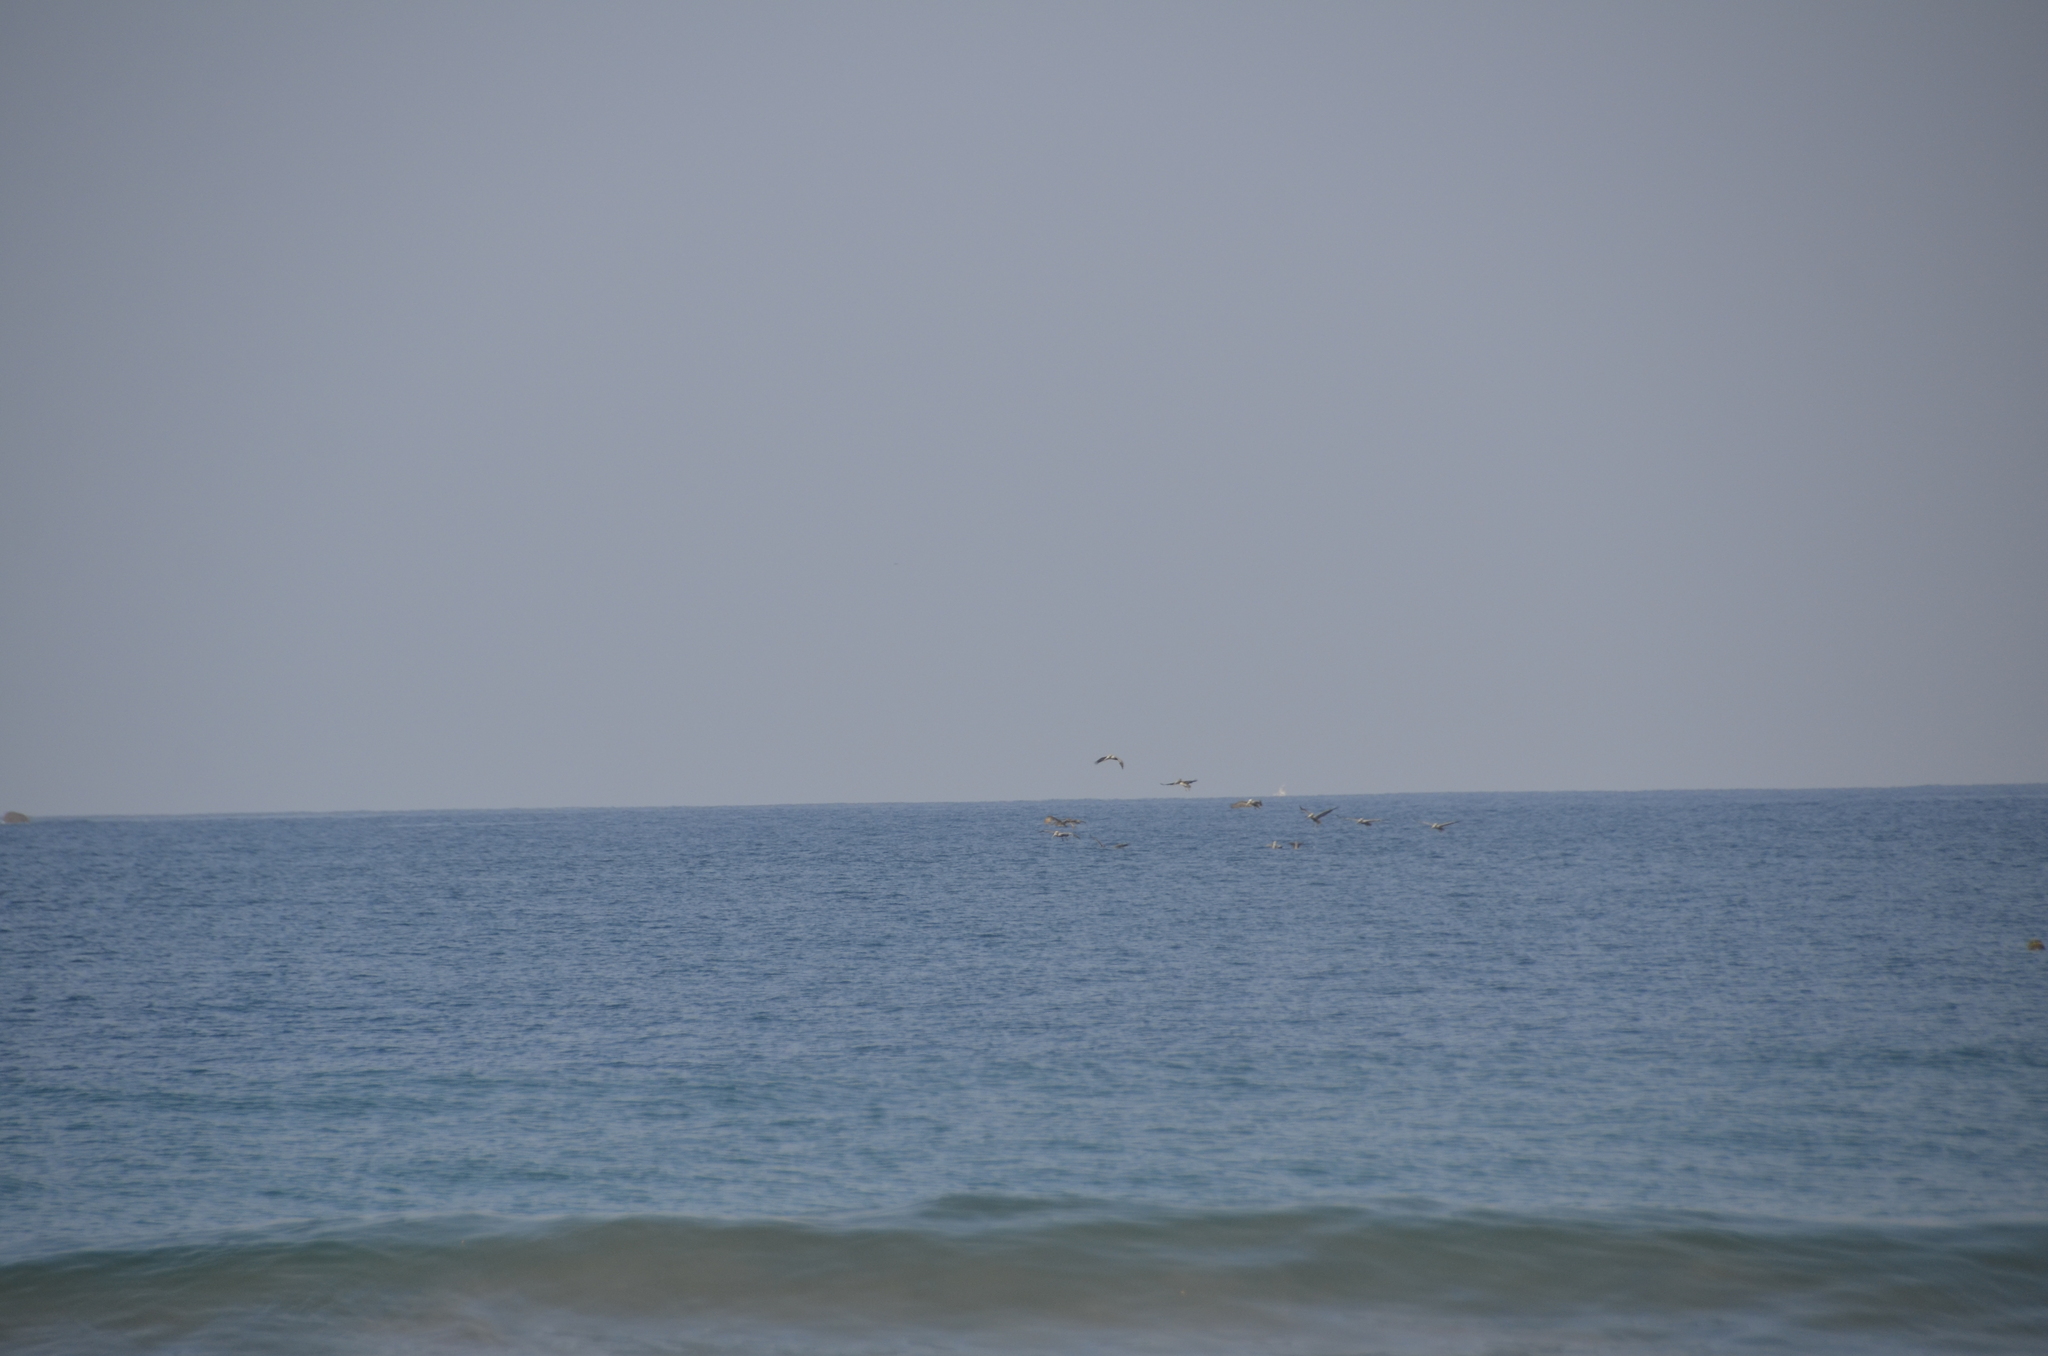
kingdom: Animalia
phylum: Chordata
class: Aves
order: Pelecaniformes
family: Pelecanidae
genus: Pelecanus
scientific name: Pelecanus occidentalis
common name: Brown pelican
